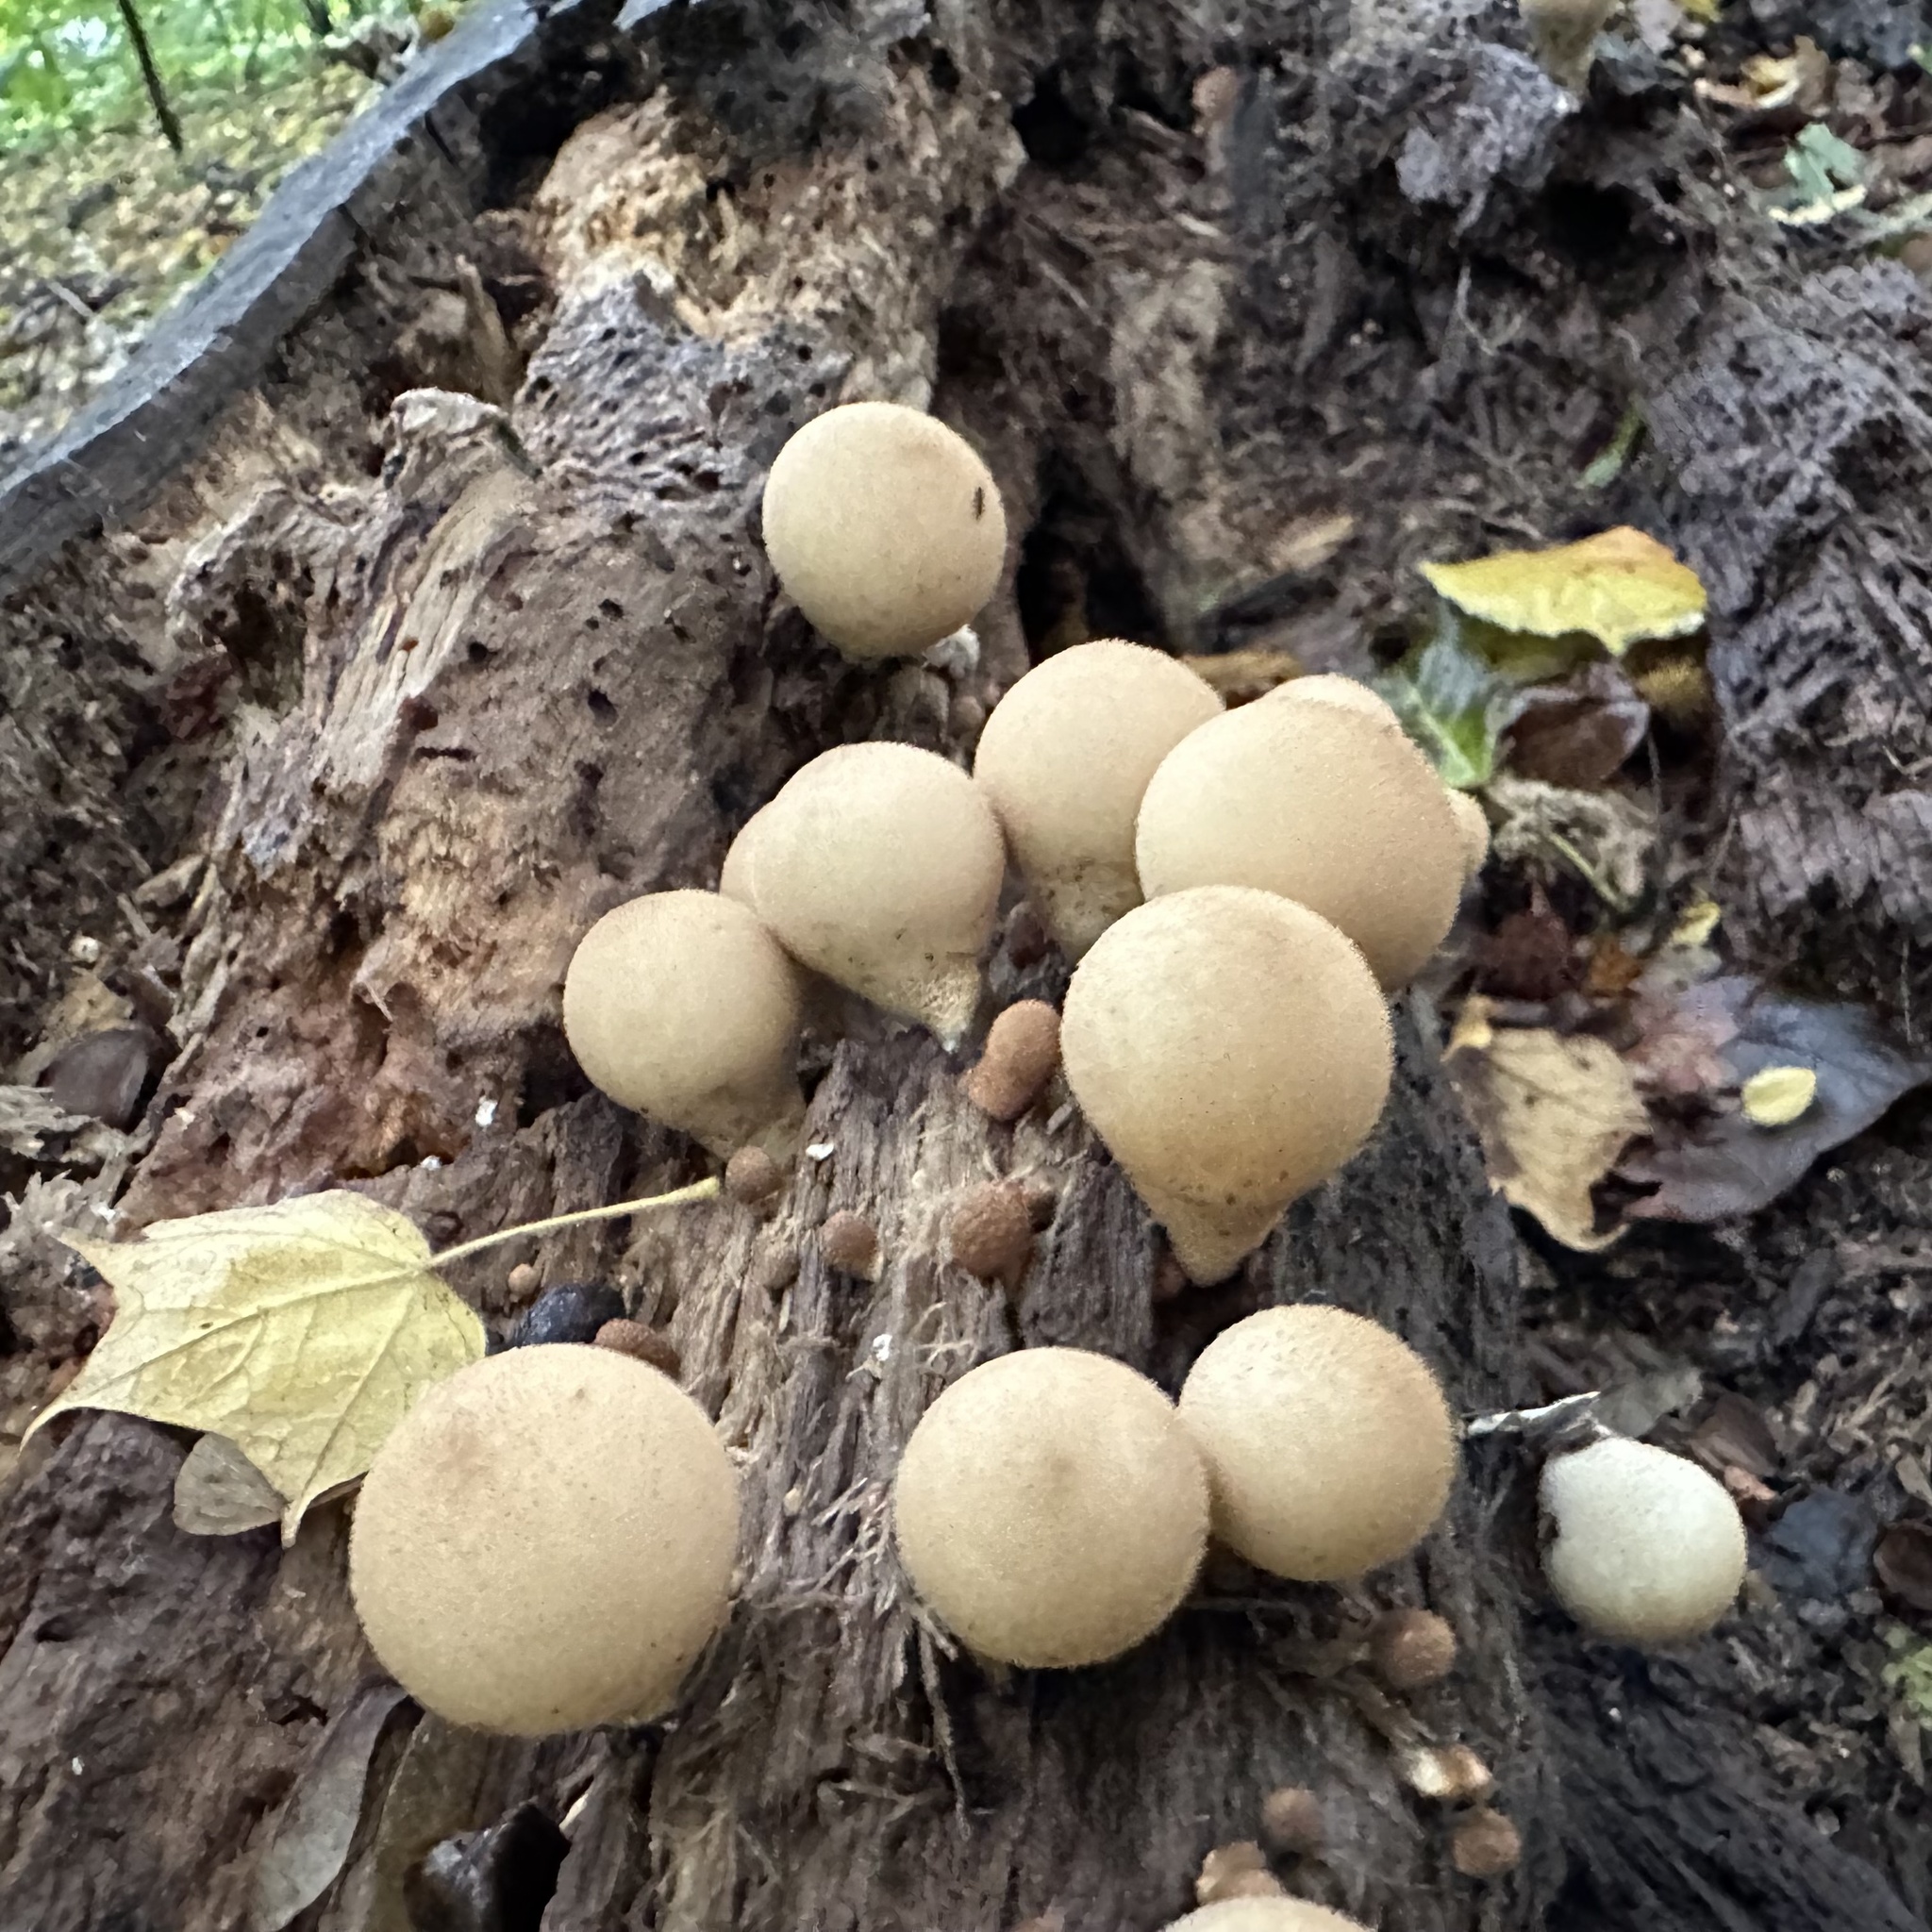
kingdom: Fungi
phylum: Basidiomycota
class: Agaricomycetes
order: Agaricales
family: Lycoperdaceae
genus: Apioperdon
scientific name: Apioperdon pyriforme
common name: Pear-shaped puffball
